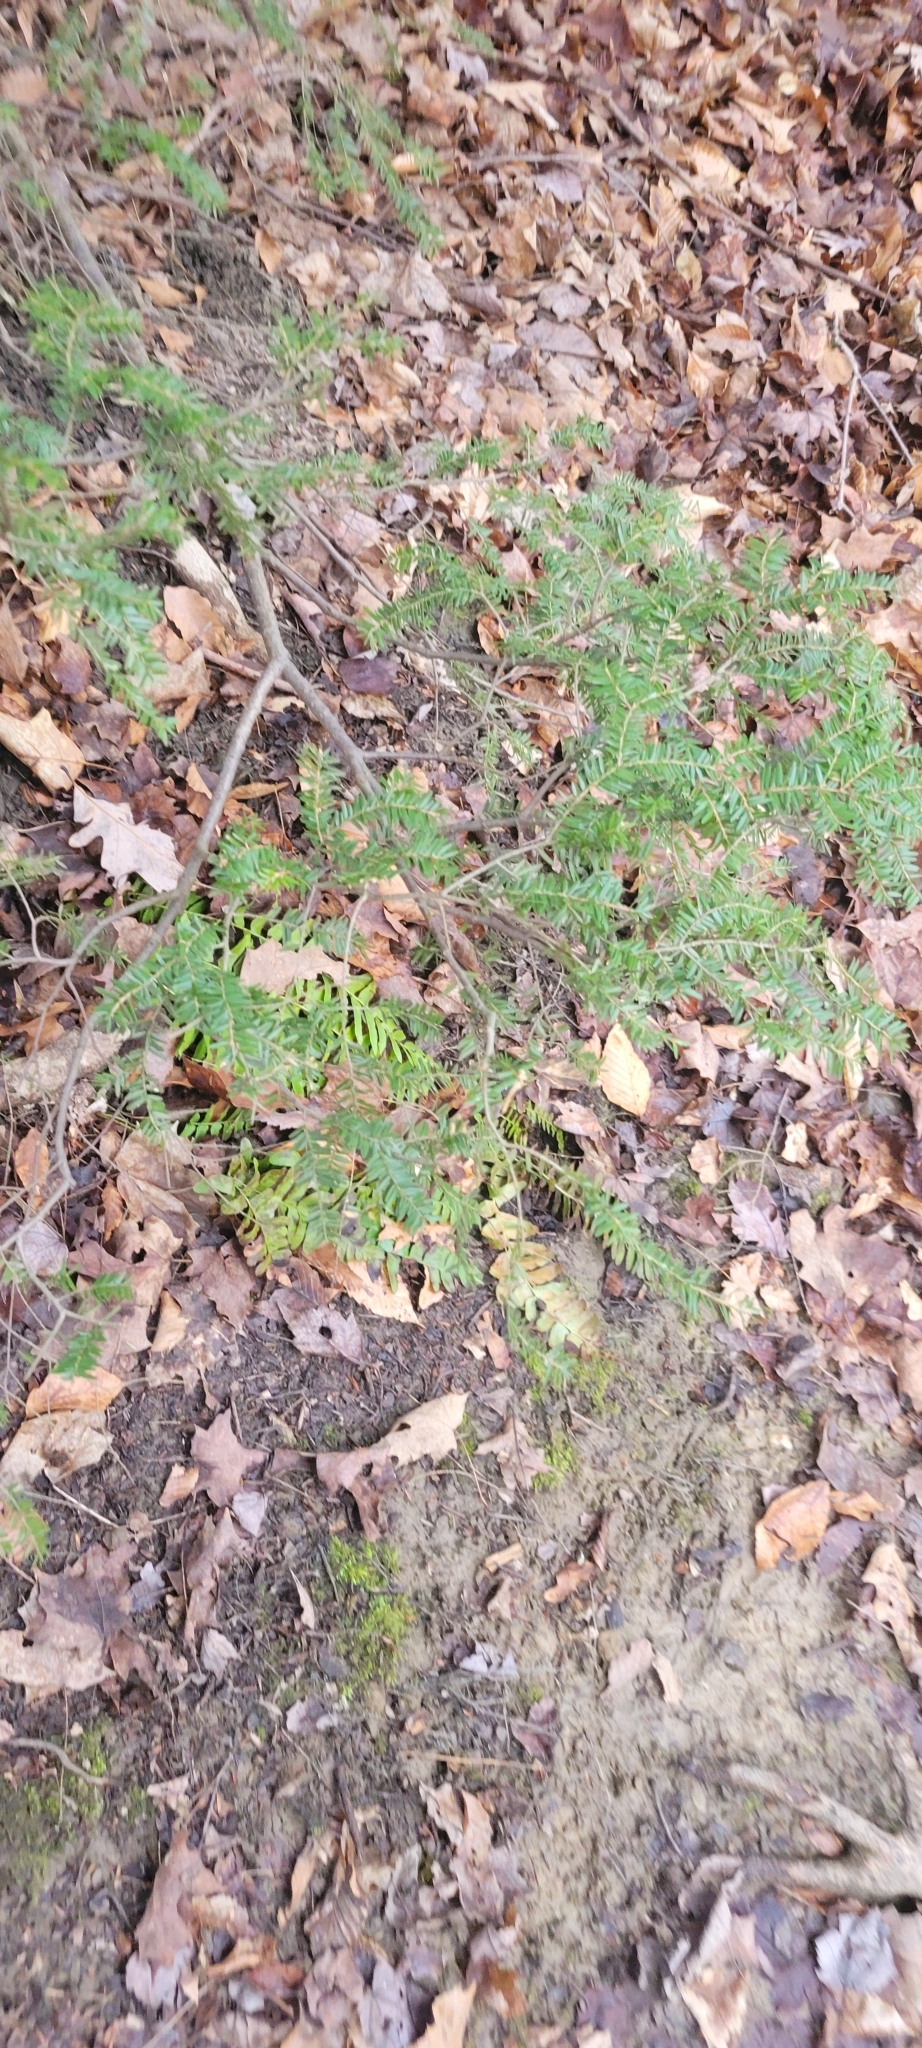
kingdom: Plantae
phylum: Tracheophyta
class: Pinopsida
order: Pinales
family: Pinaceae
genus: Tsuga
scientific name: Tsuga canadensis
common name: Eastern hemlock
